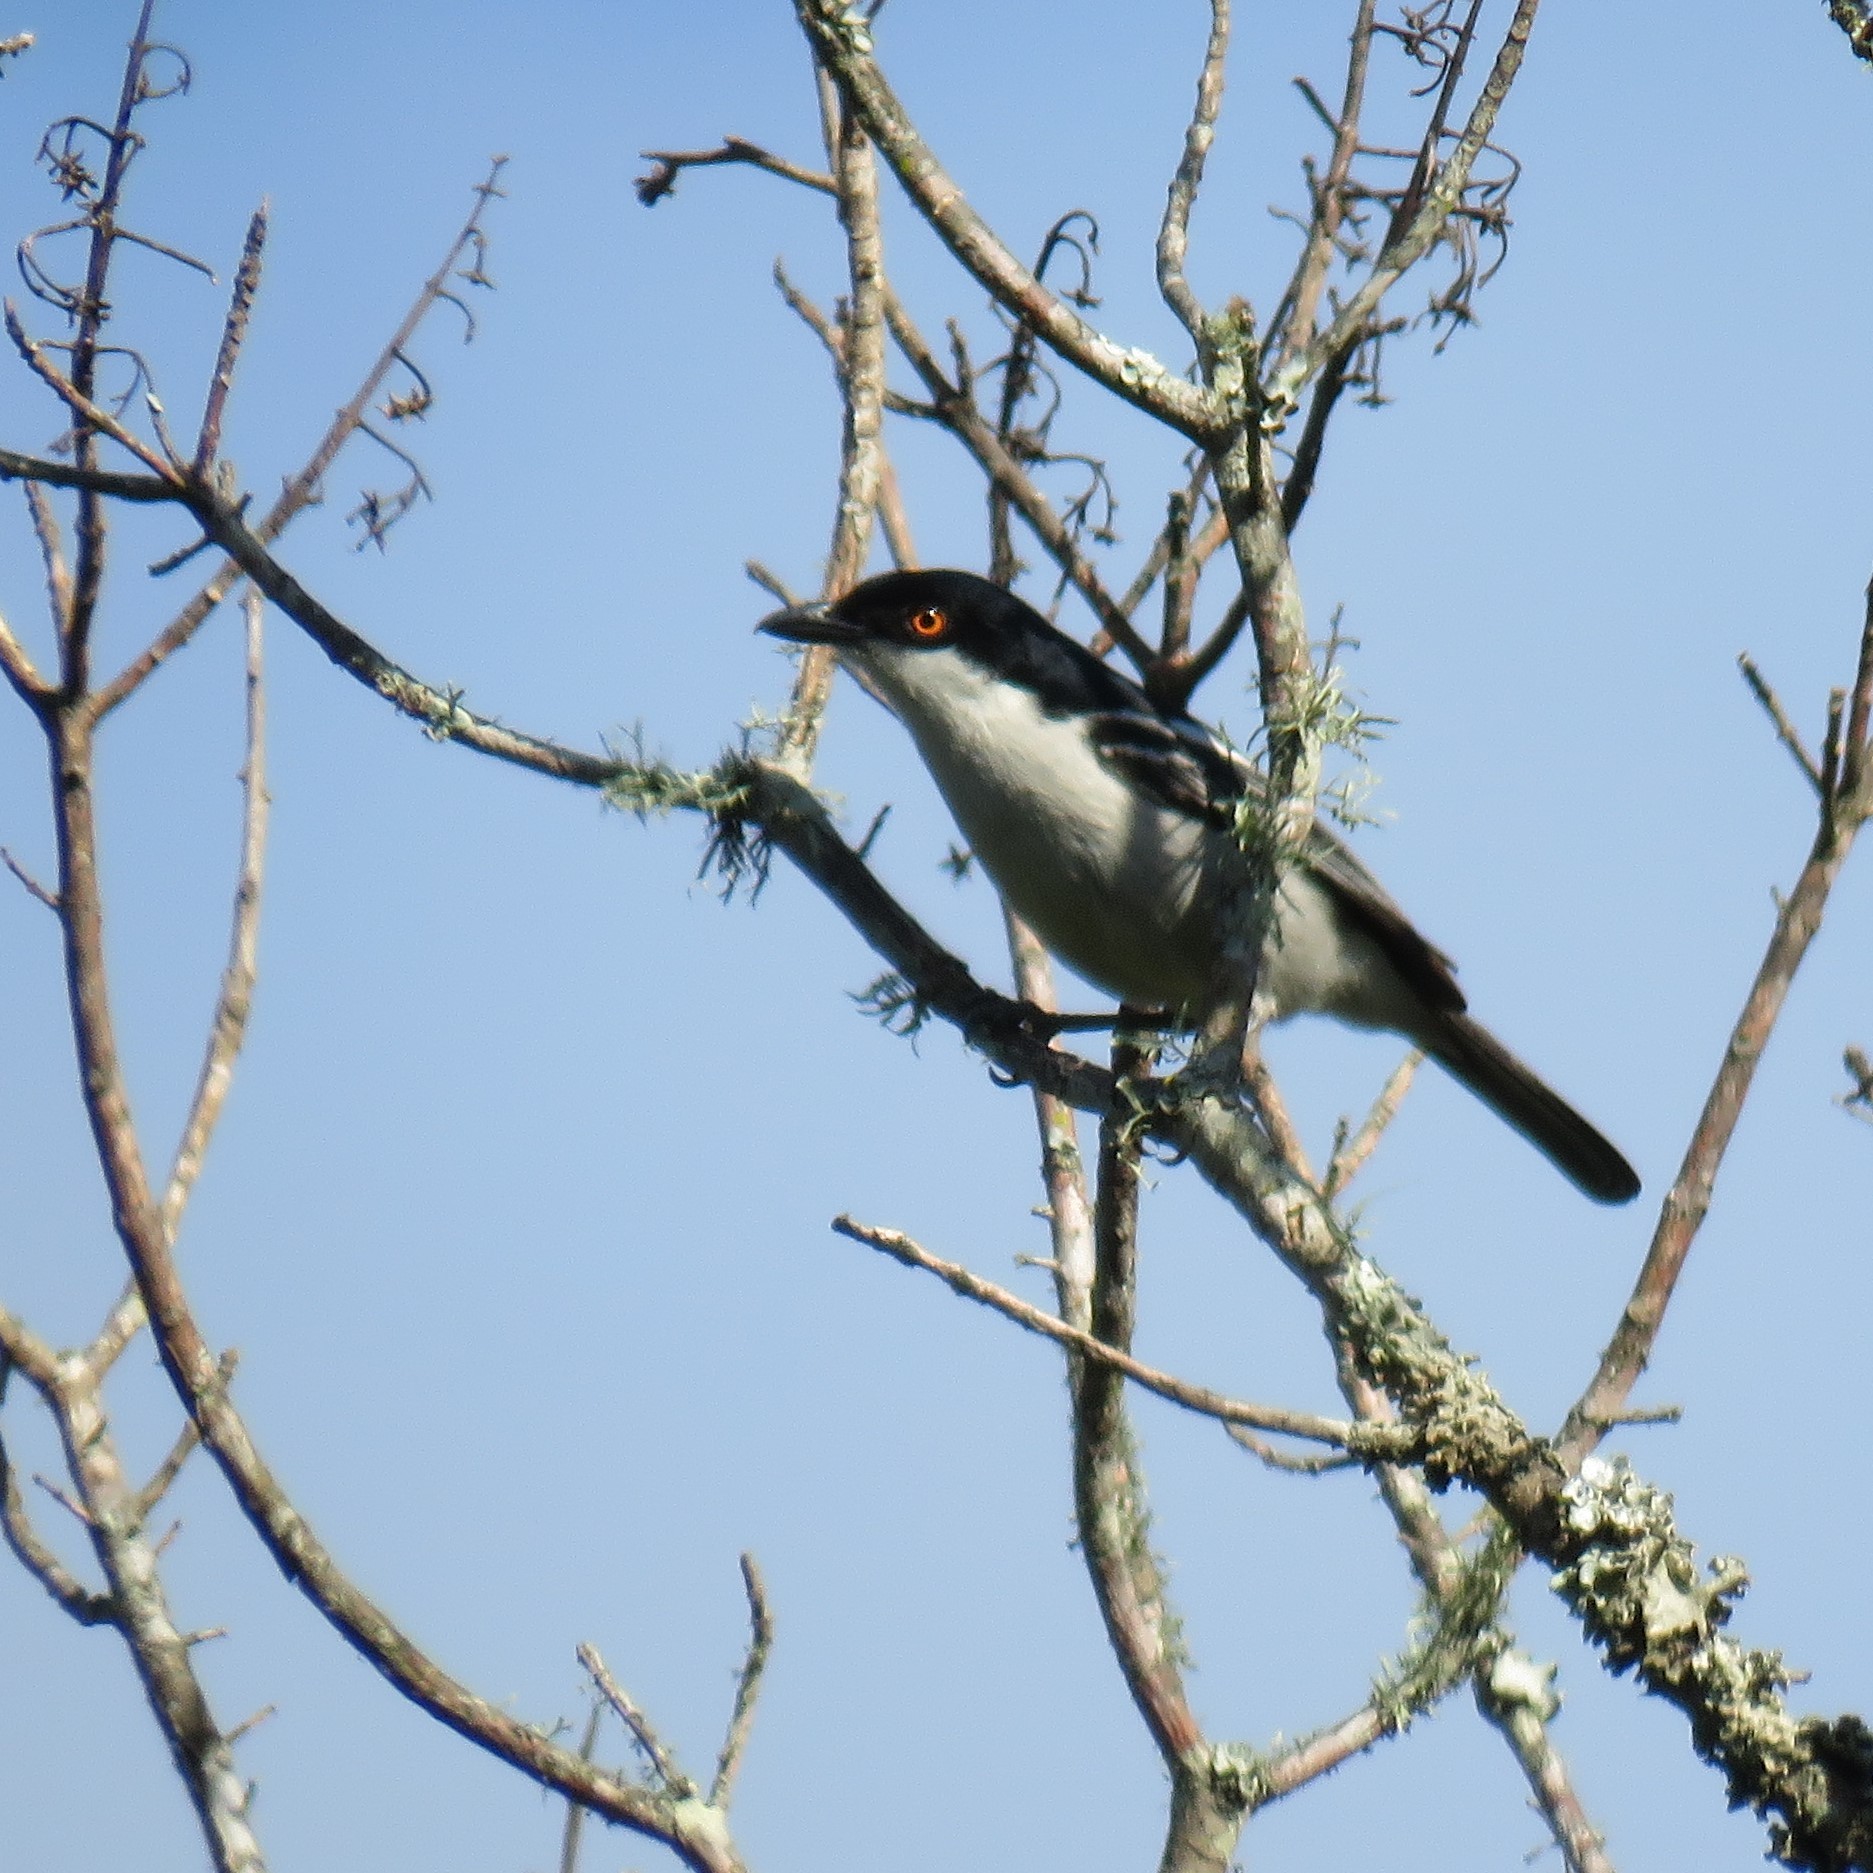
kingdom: Animalia
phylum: Chordata
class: Aves
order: Passeriformes
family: Malaconotidae
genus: Dryoscopus
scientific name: Dryoscopus cubla
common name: Black-backed puffback
